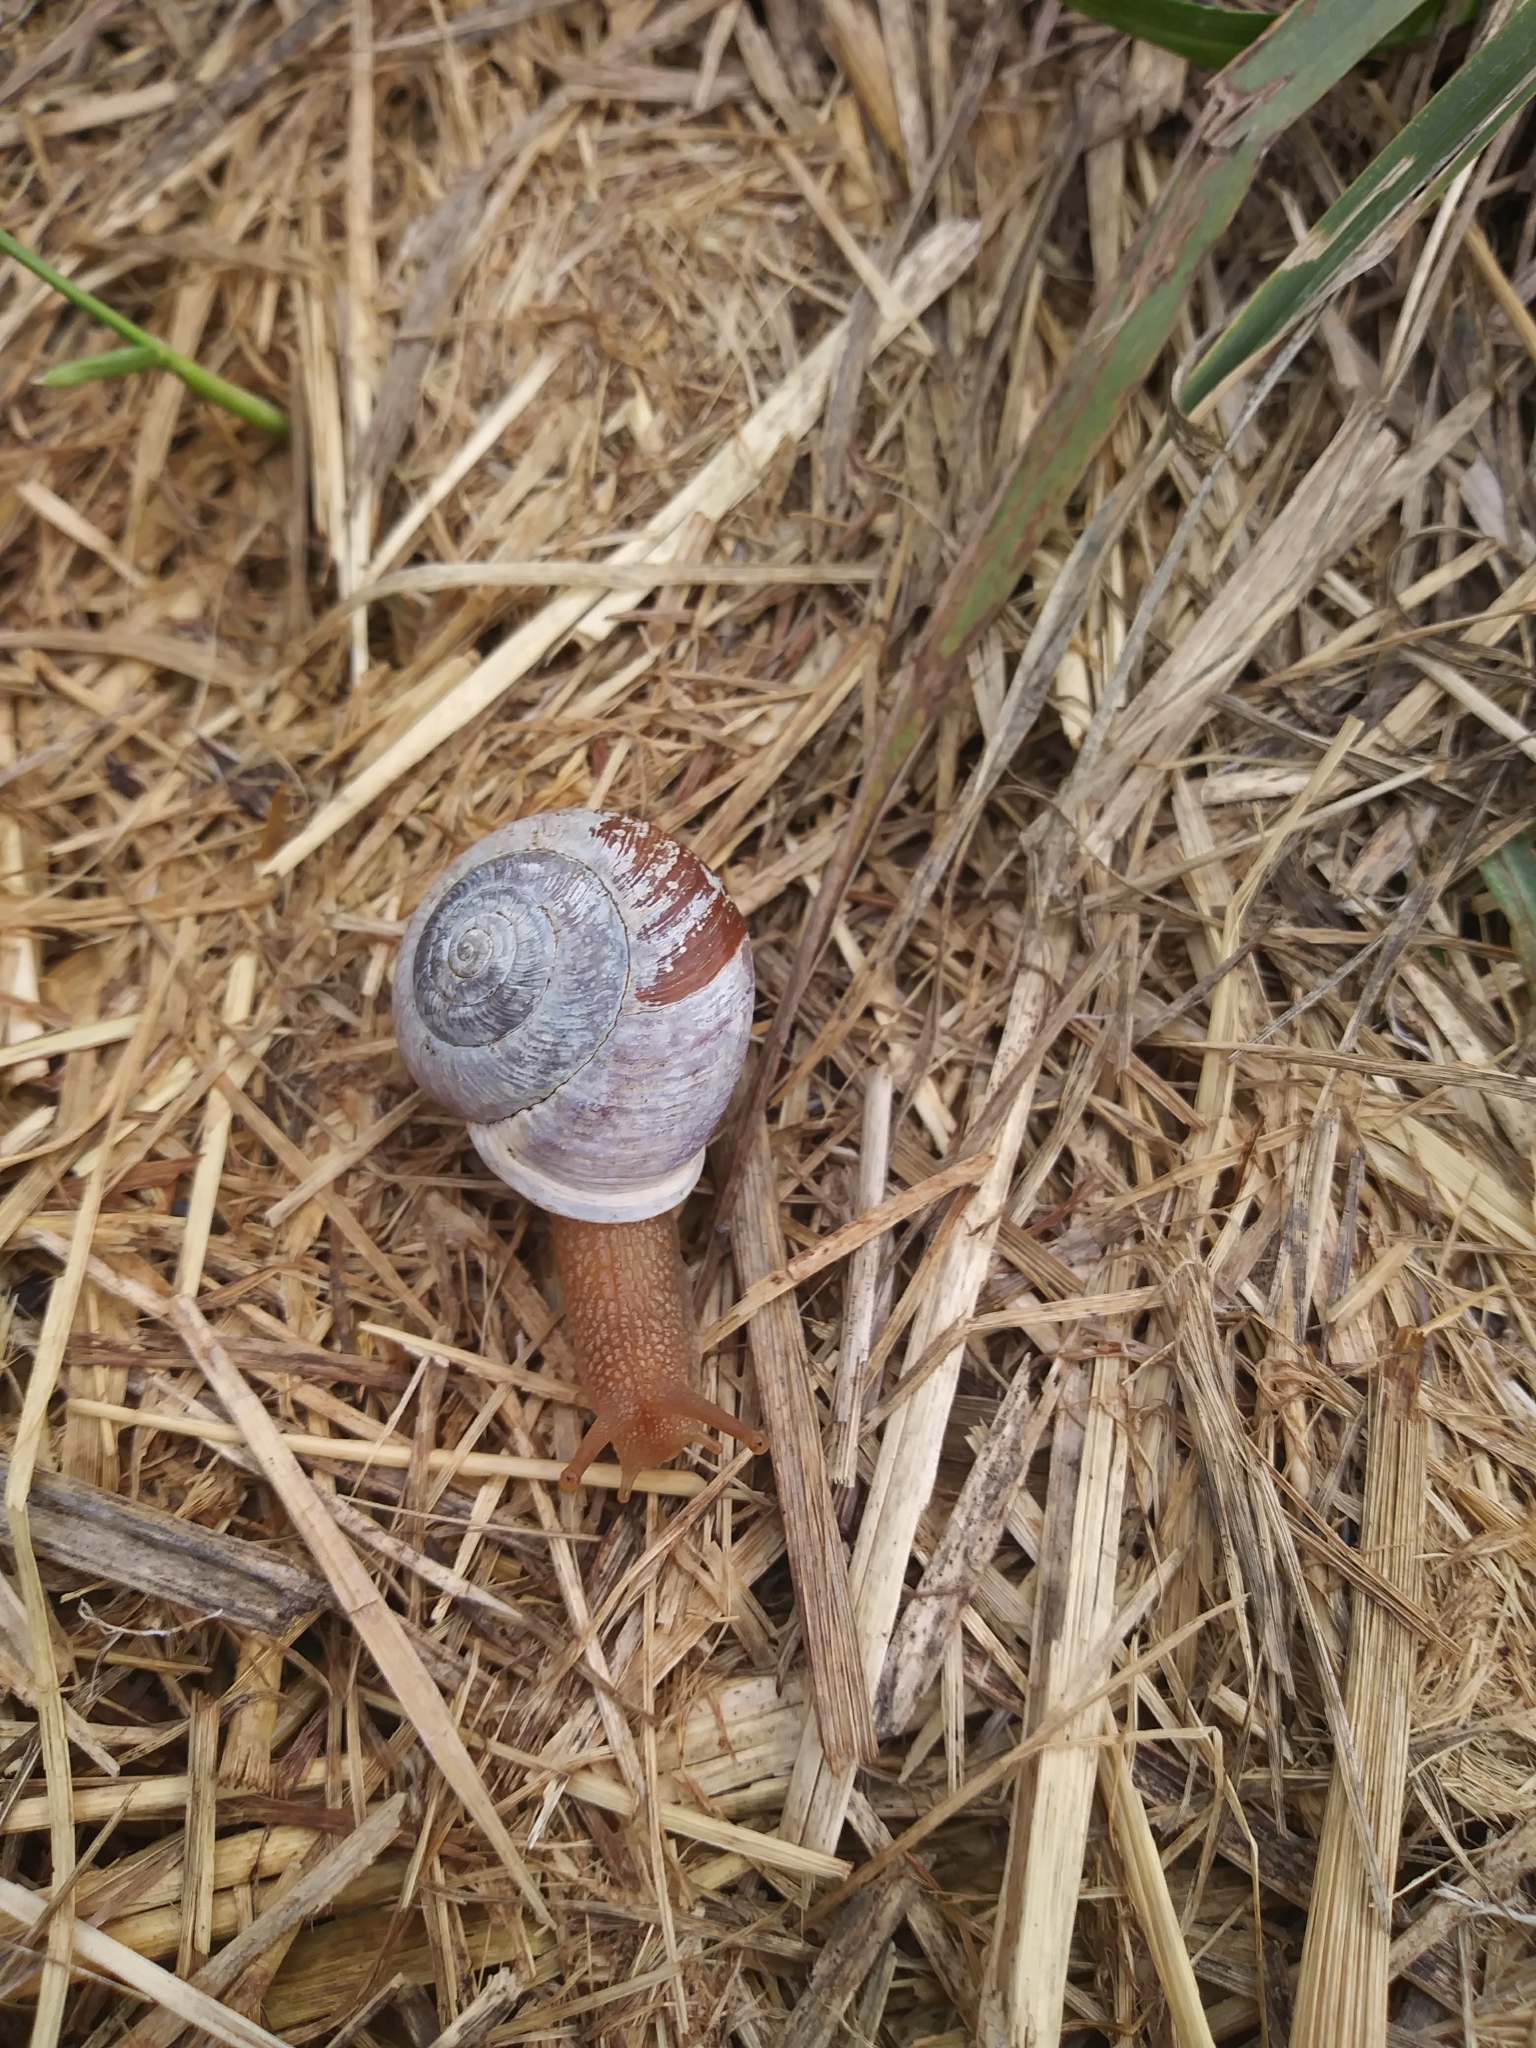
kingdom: Animalia
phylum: Mollusca
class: Gastropoda
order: Stylommatophora
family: Polygyridae
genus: Allogona
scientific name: Allogona townsendiana
